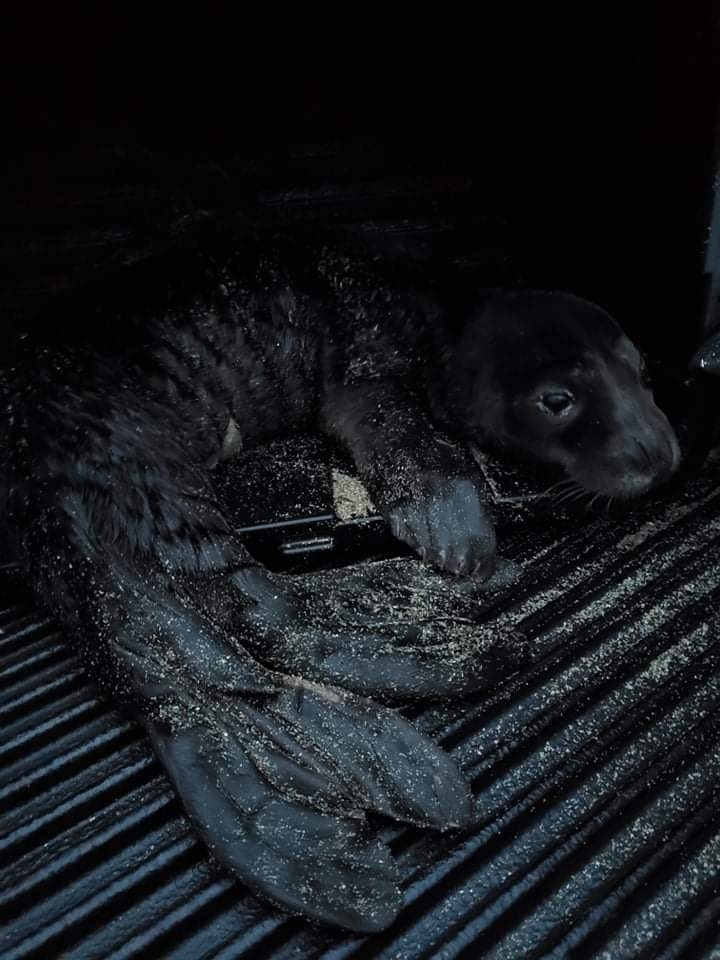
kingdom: Animalia
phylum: Chordata
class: Mammalia
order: Carnivora
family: Phocidae
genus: Monachus
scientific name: Monachus monachus
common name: Mediterranean monk seal
